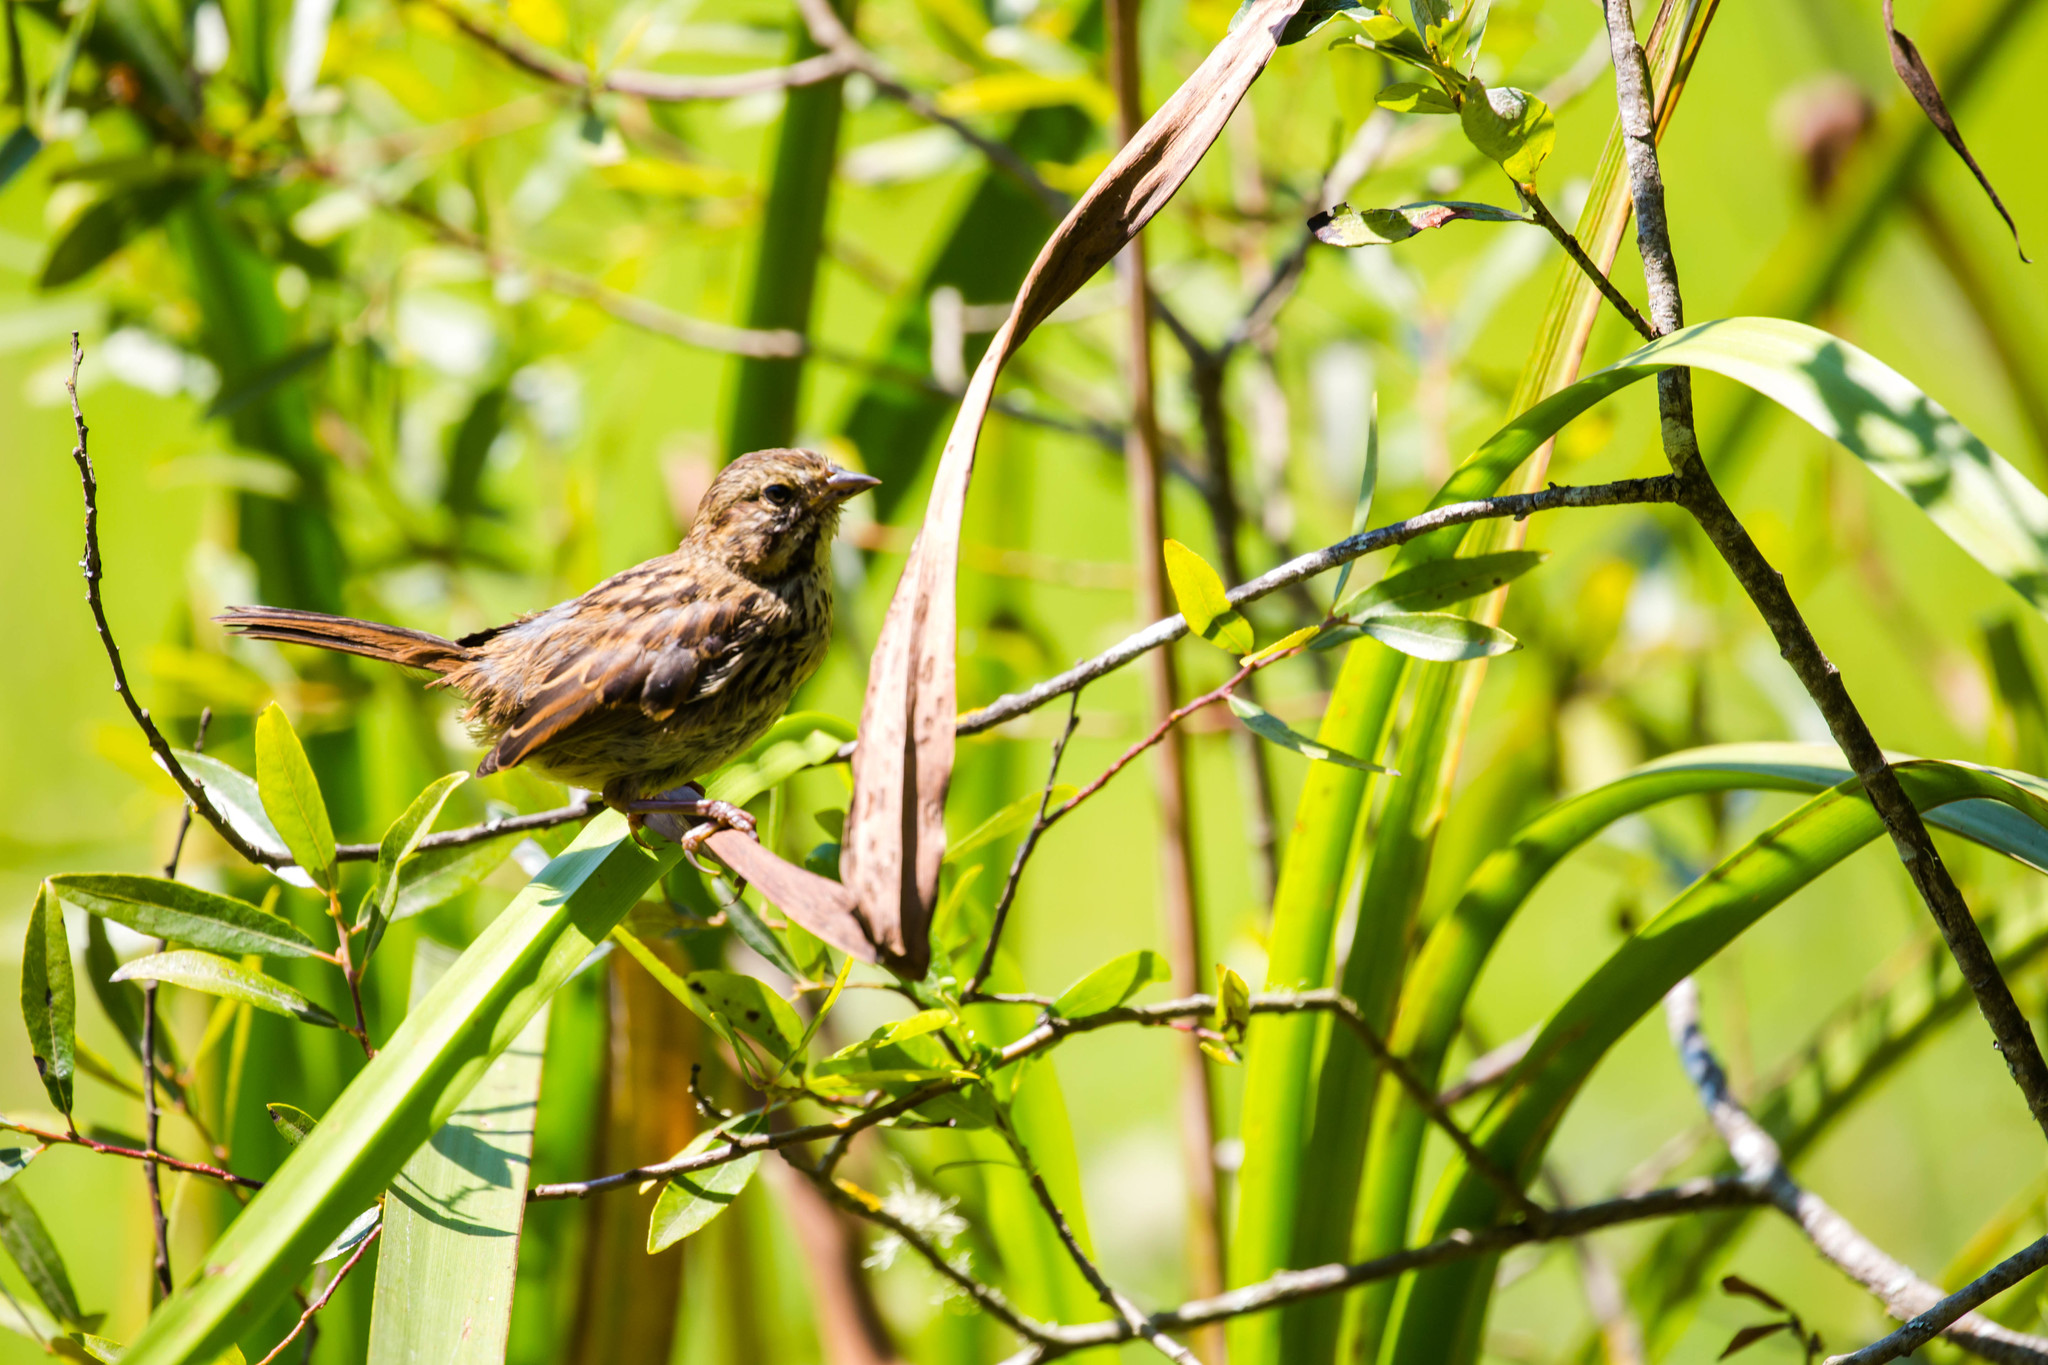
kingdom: Animalia
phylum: Chordata
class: Aves
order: Passeriformes
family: Passerellidae
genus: Melospiza
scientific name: Melospiza melodia
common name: Song sparrow
